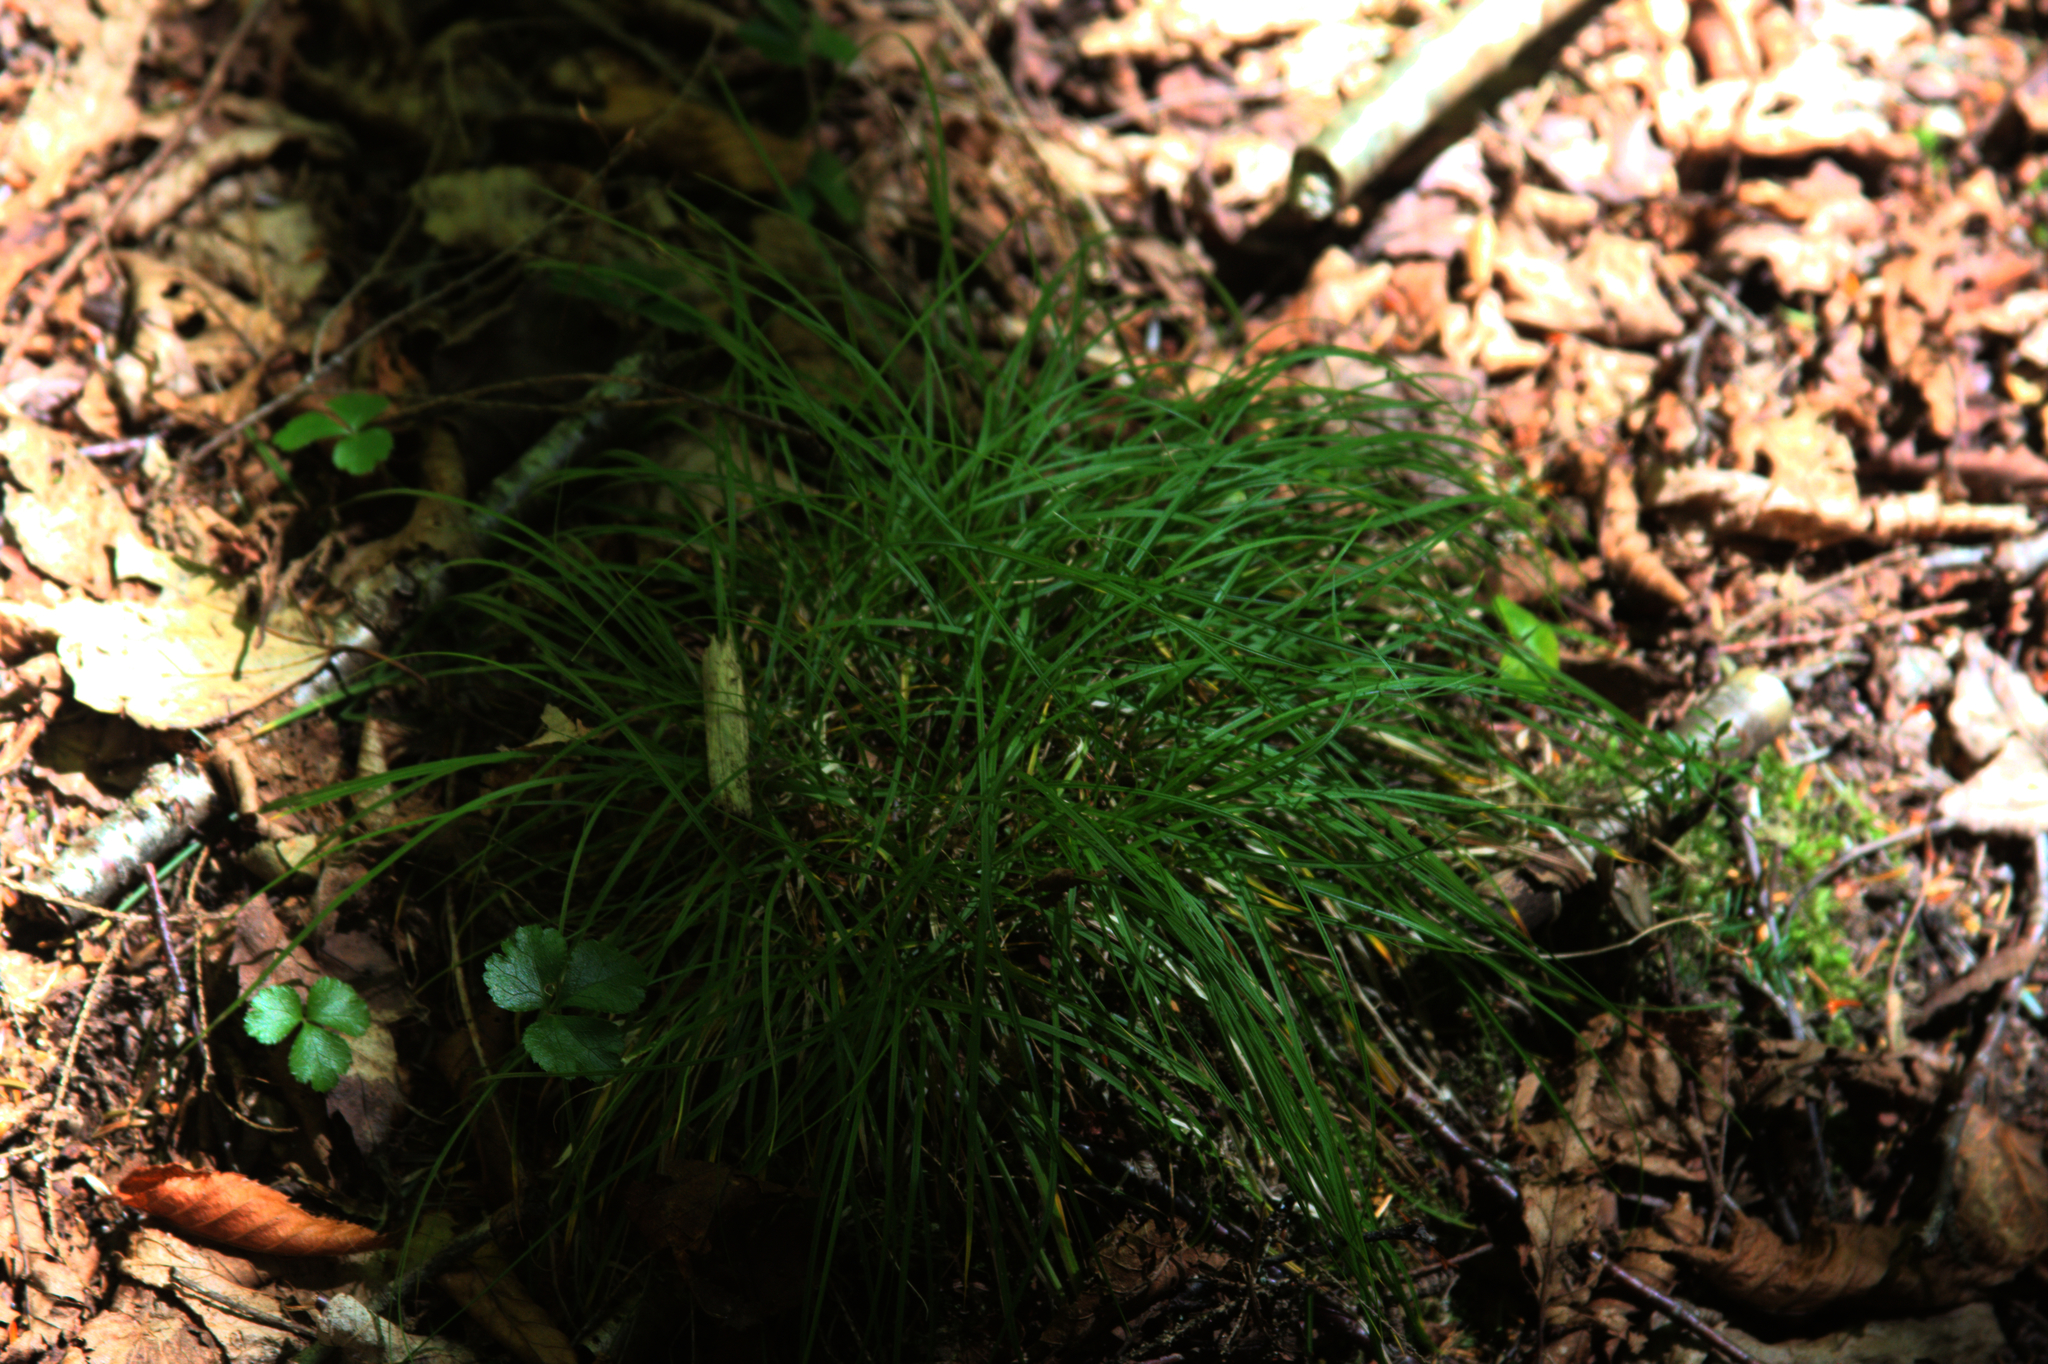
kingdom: Plantae
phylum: Tracheophyta
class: Magnoliopsida
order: Ranunculales
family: Ranunculaceae
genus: Coptis
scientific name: Coptis trifolia
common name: Canker-root
